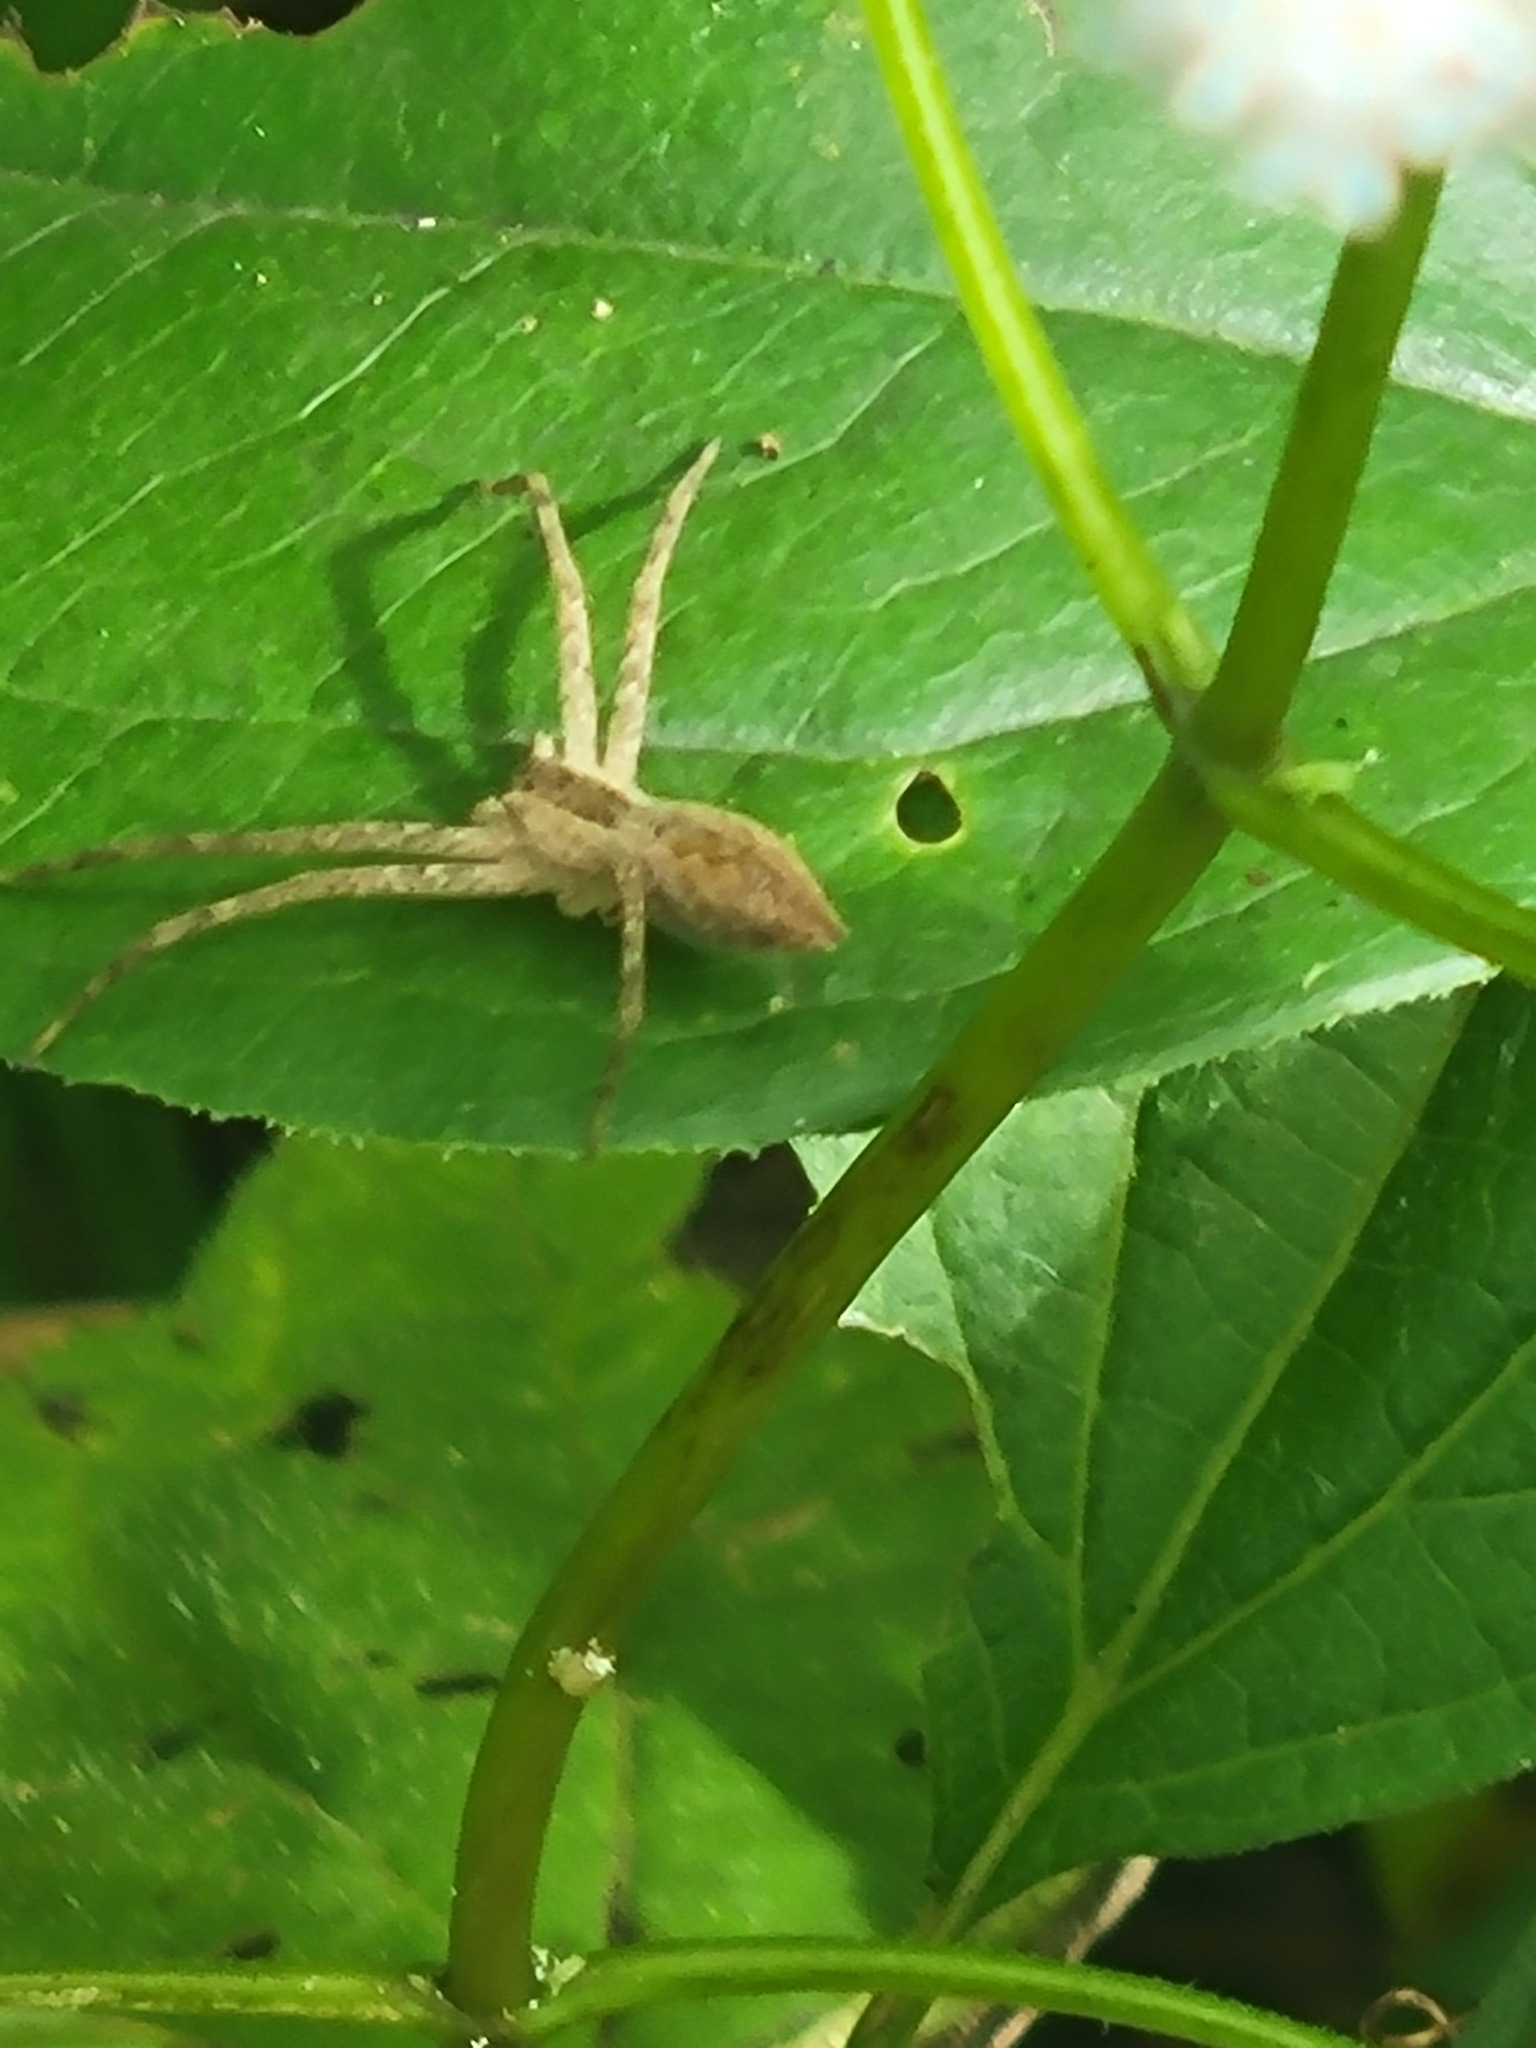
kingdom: Animalia
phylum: Arthropoda
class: Arachnida
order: Araneae
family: Pisauridae
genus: Pisaurina
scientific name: Pisaurina mira
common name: American nursery web spider
